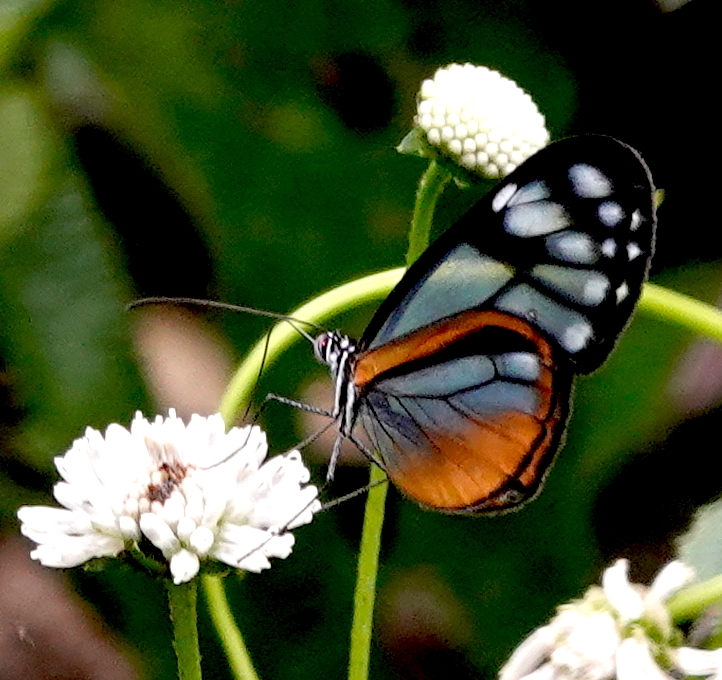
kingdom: Animalia
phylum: Arthropoda
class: Insecta
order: Lepidoptera
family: Nymphalidae
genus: Hypoleria
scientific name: Hypoleria lavinia
